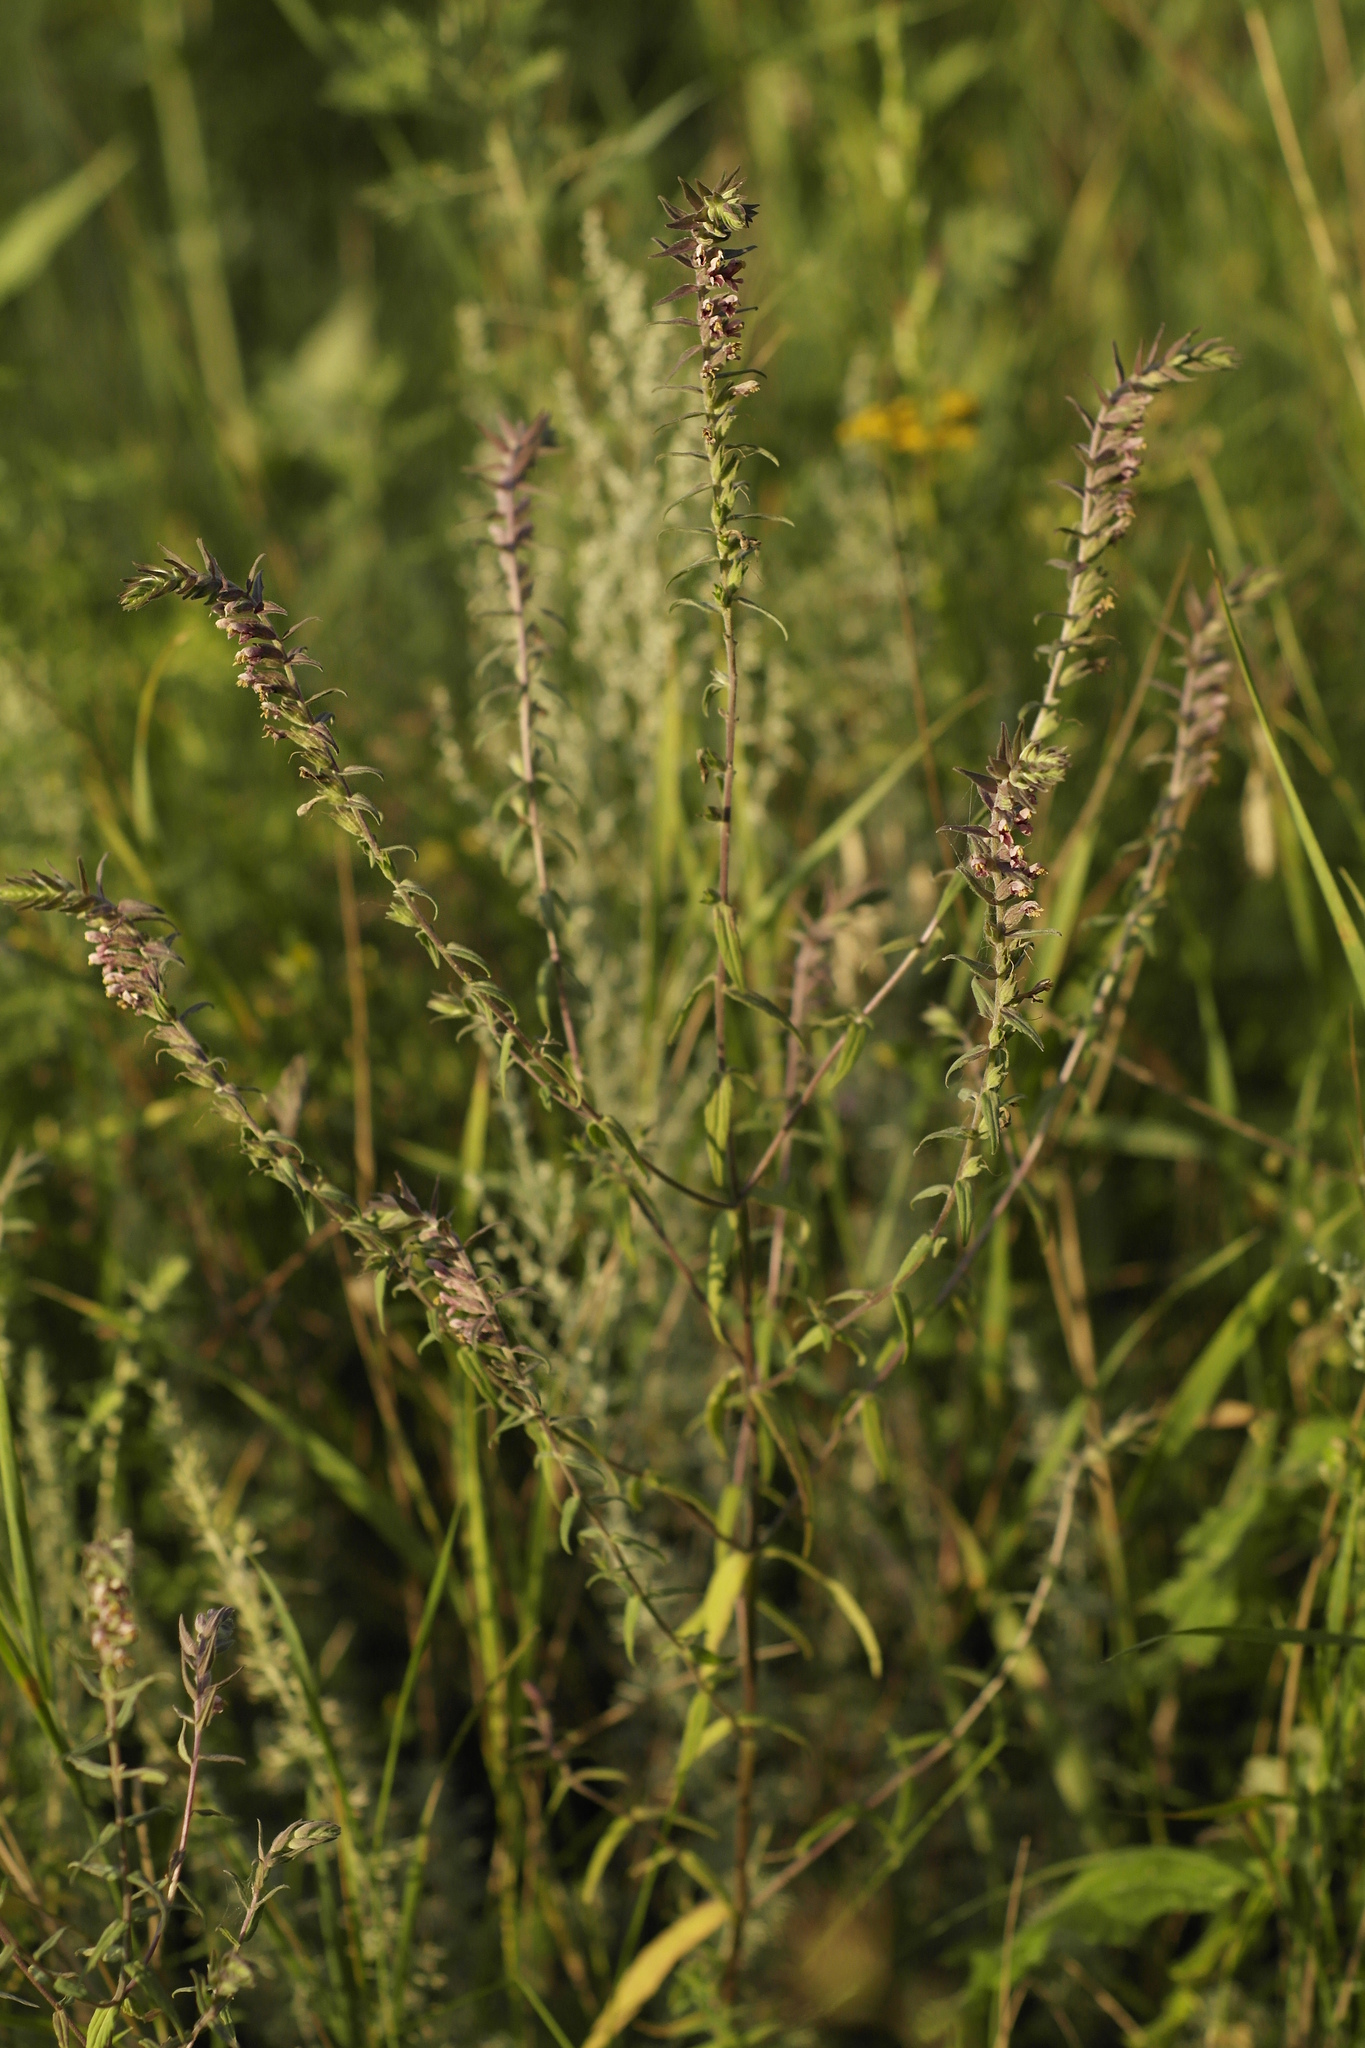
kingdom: Plantae
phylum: Tracheophyta
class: Magnoliopsida
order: Lamiales
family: Orobanchaceae
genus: Odontites
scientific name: Odontites vulgaris
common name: Broomrape
